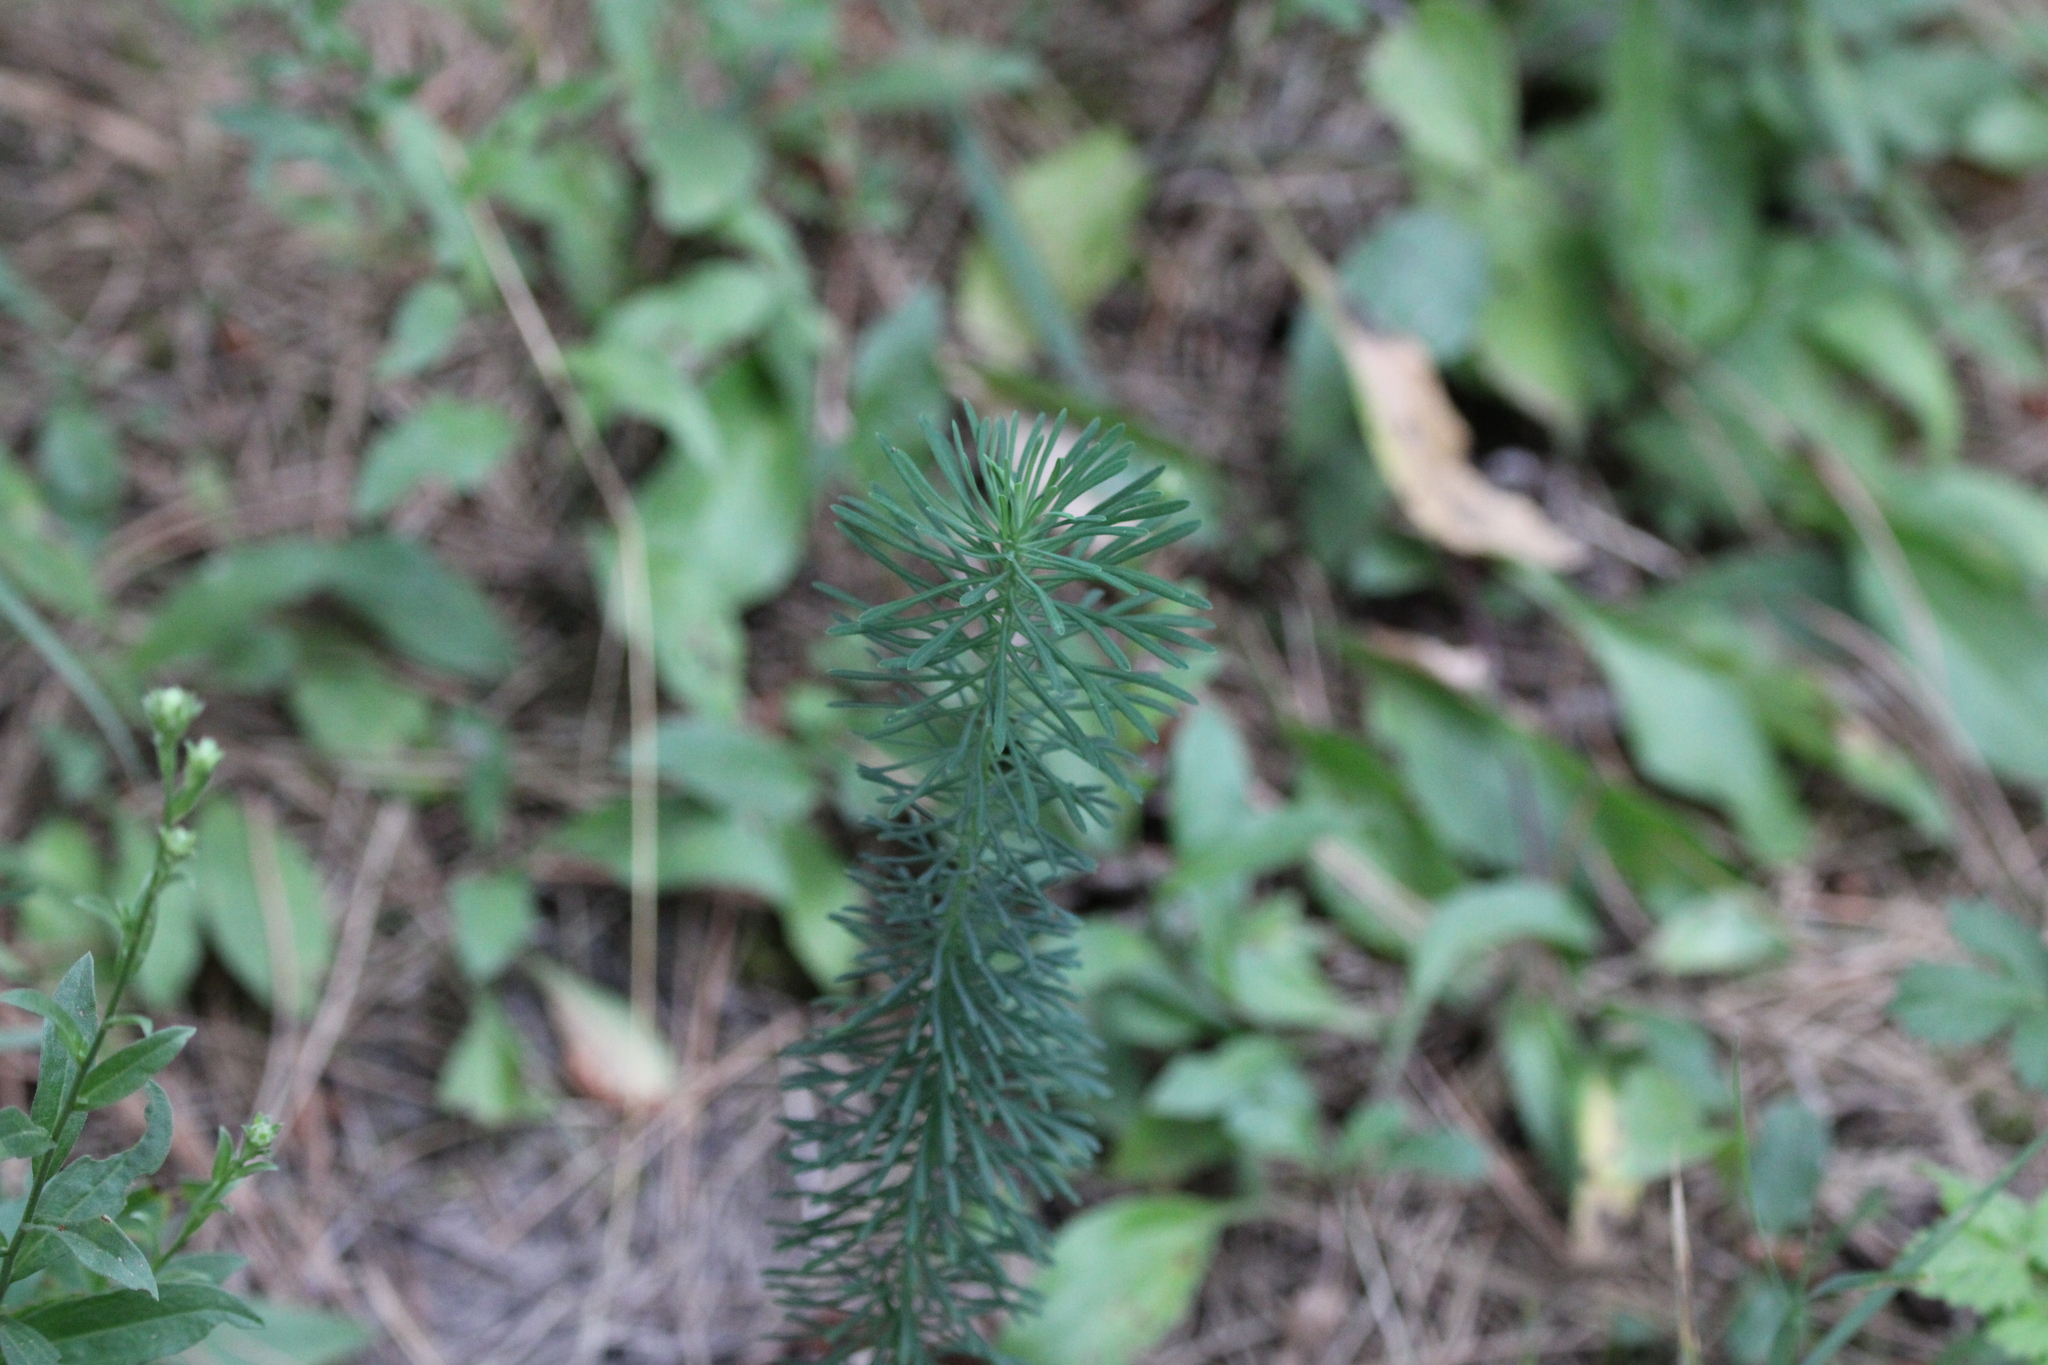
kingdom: Plantae
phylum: Tracheophyta
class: Magnoliopsida
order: Malpighiales
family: Euphorbiaceae
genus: Euphorbia
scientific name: Euphorbia cyparissias
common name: Cypress spurge
